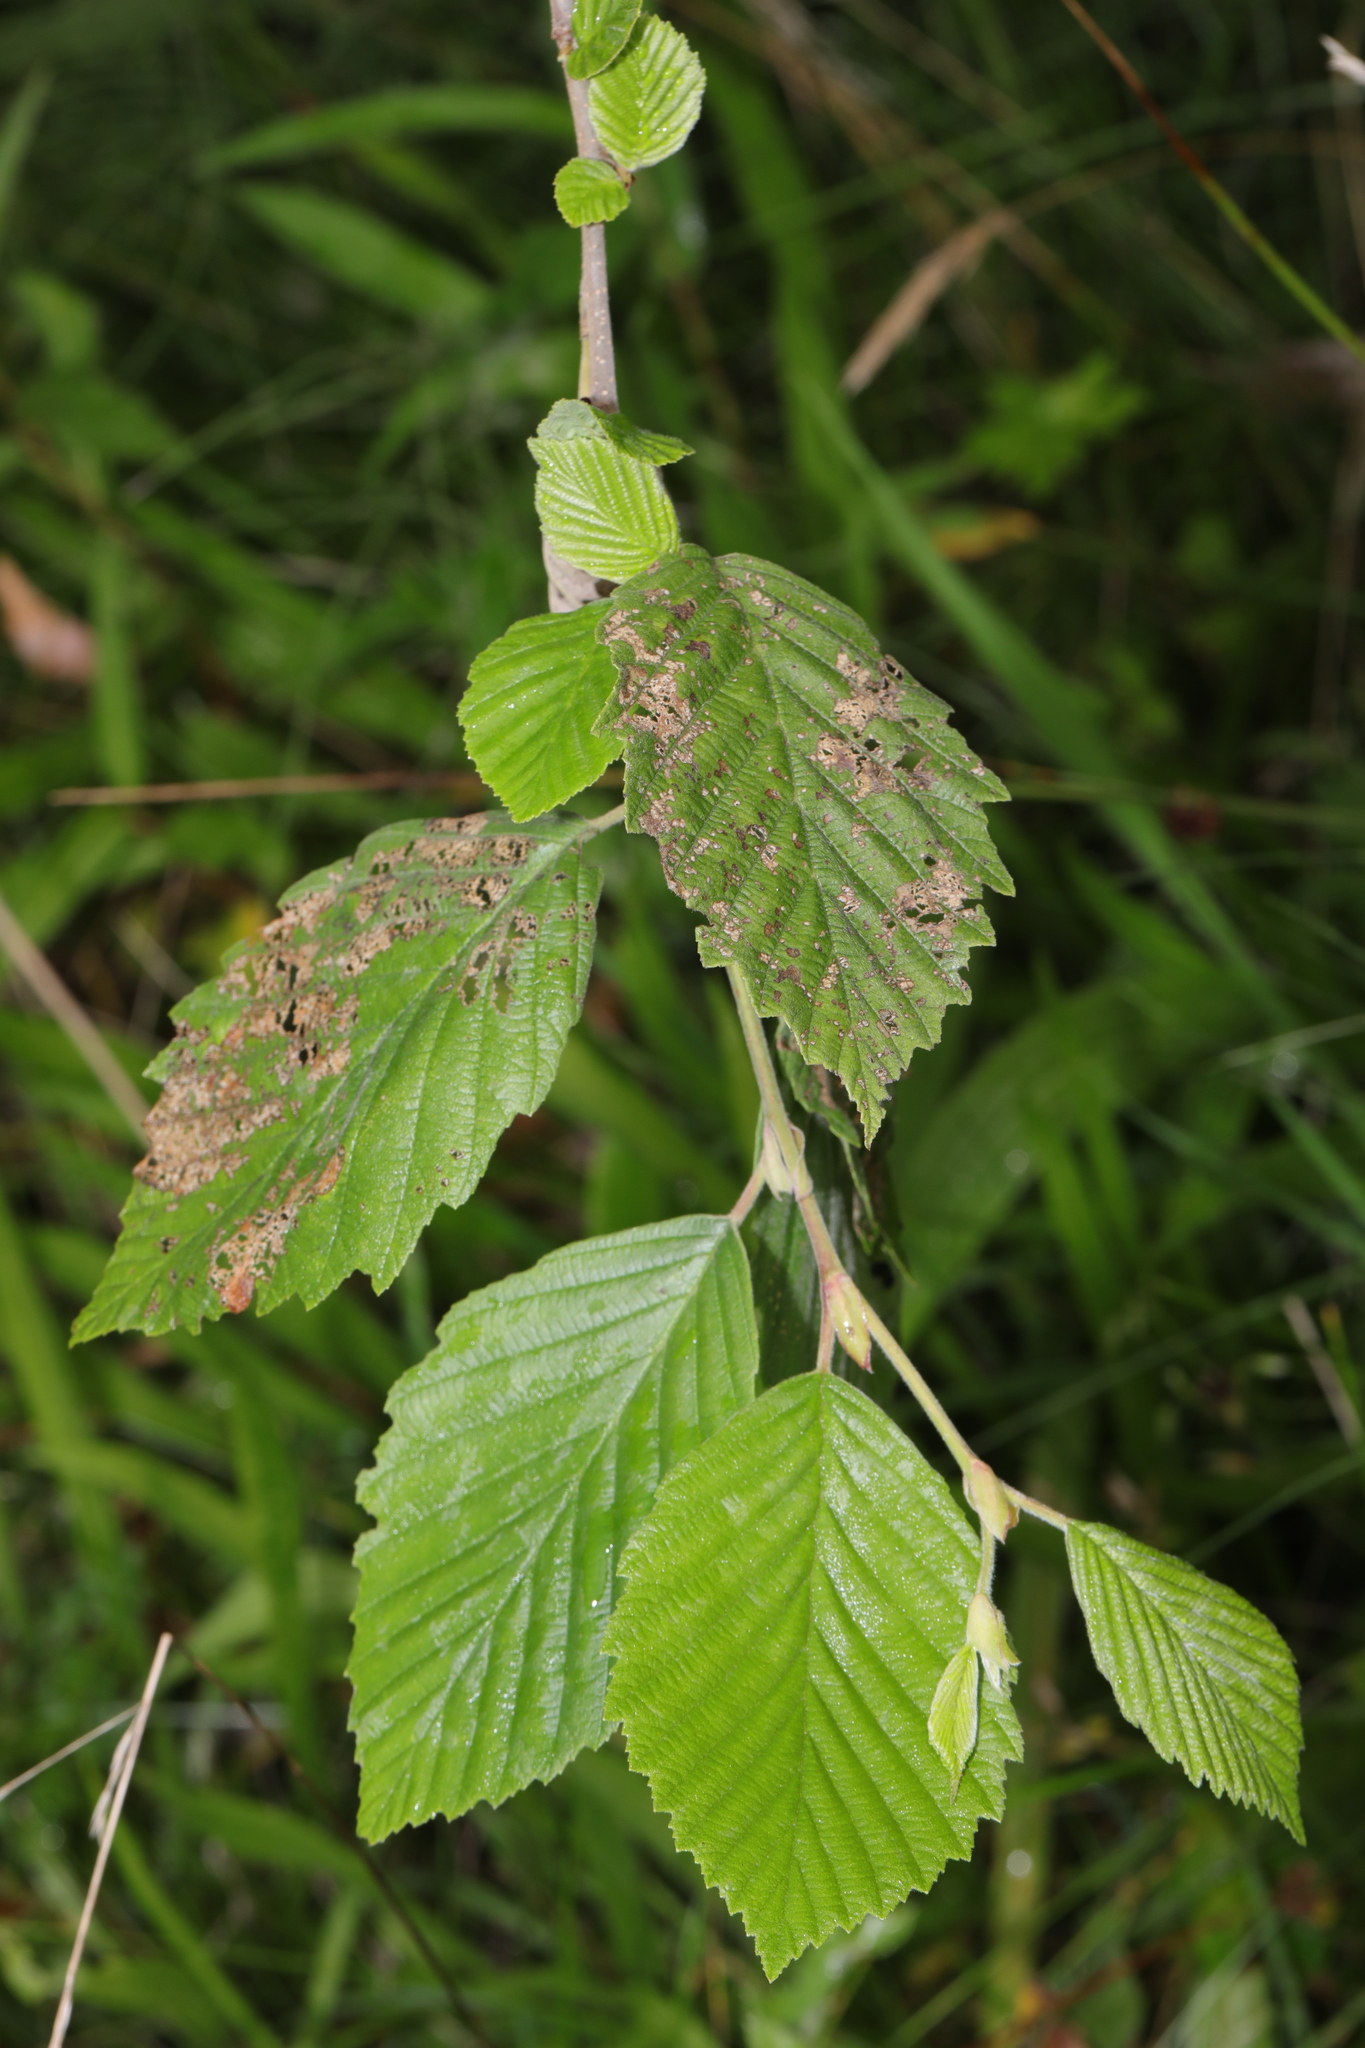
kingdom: Plantae
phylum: Tracheophyta
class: Magnoliopsida
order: Fagales
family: Betulaceae
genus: Alnus
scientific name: Alnus incana
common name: Grey alder
